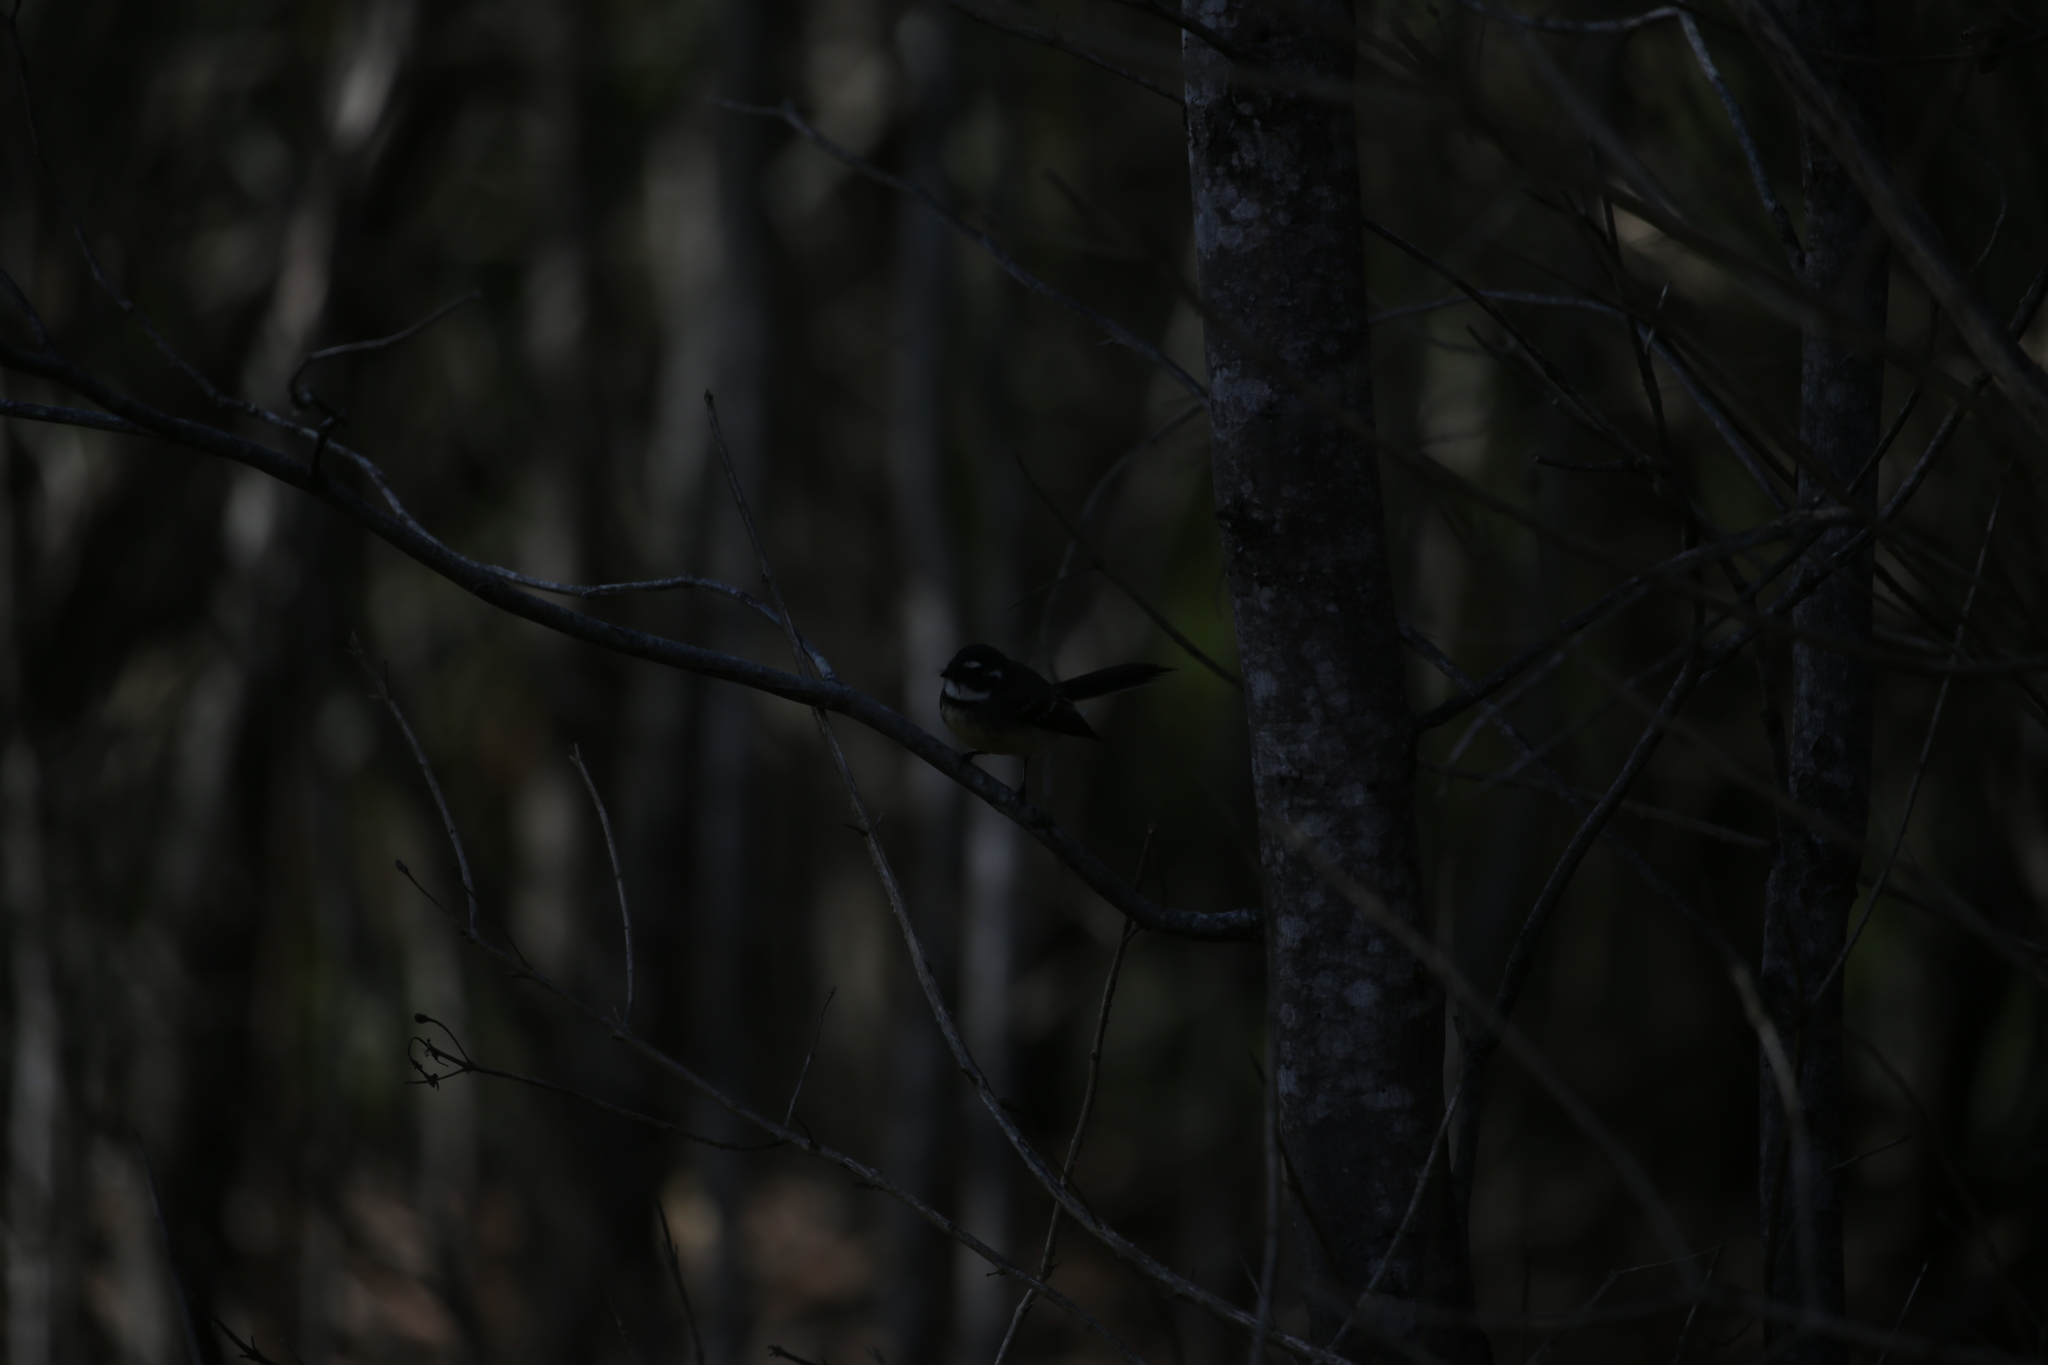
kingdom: Animalia
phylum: Chordata
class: Aves
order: Passeriformes
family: Rhipiduridae
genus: Rhipidura
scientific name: Rhipidura albiscapa
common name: Grey fantail
